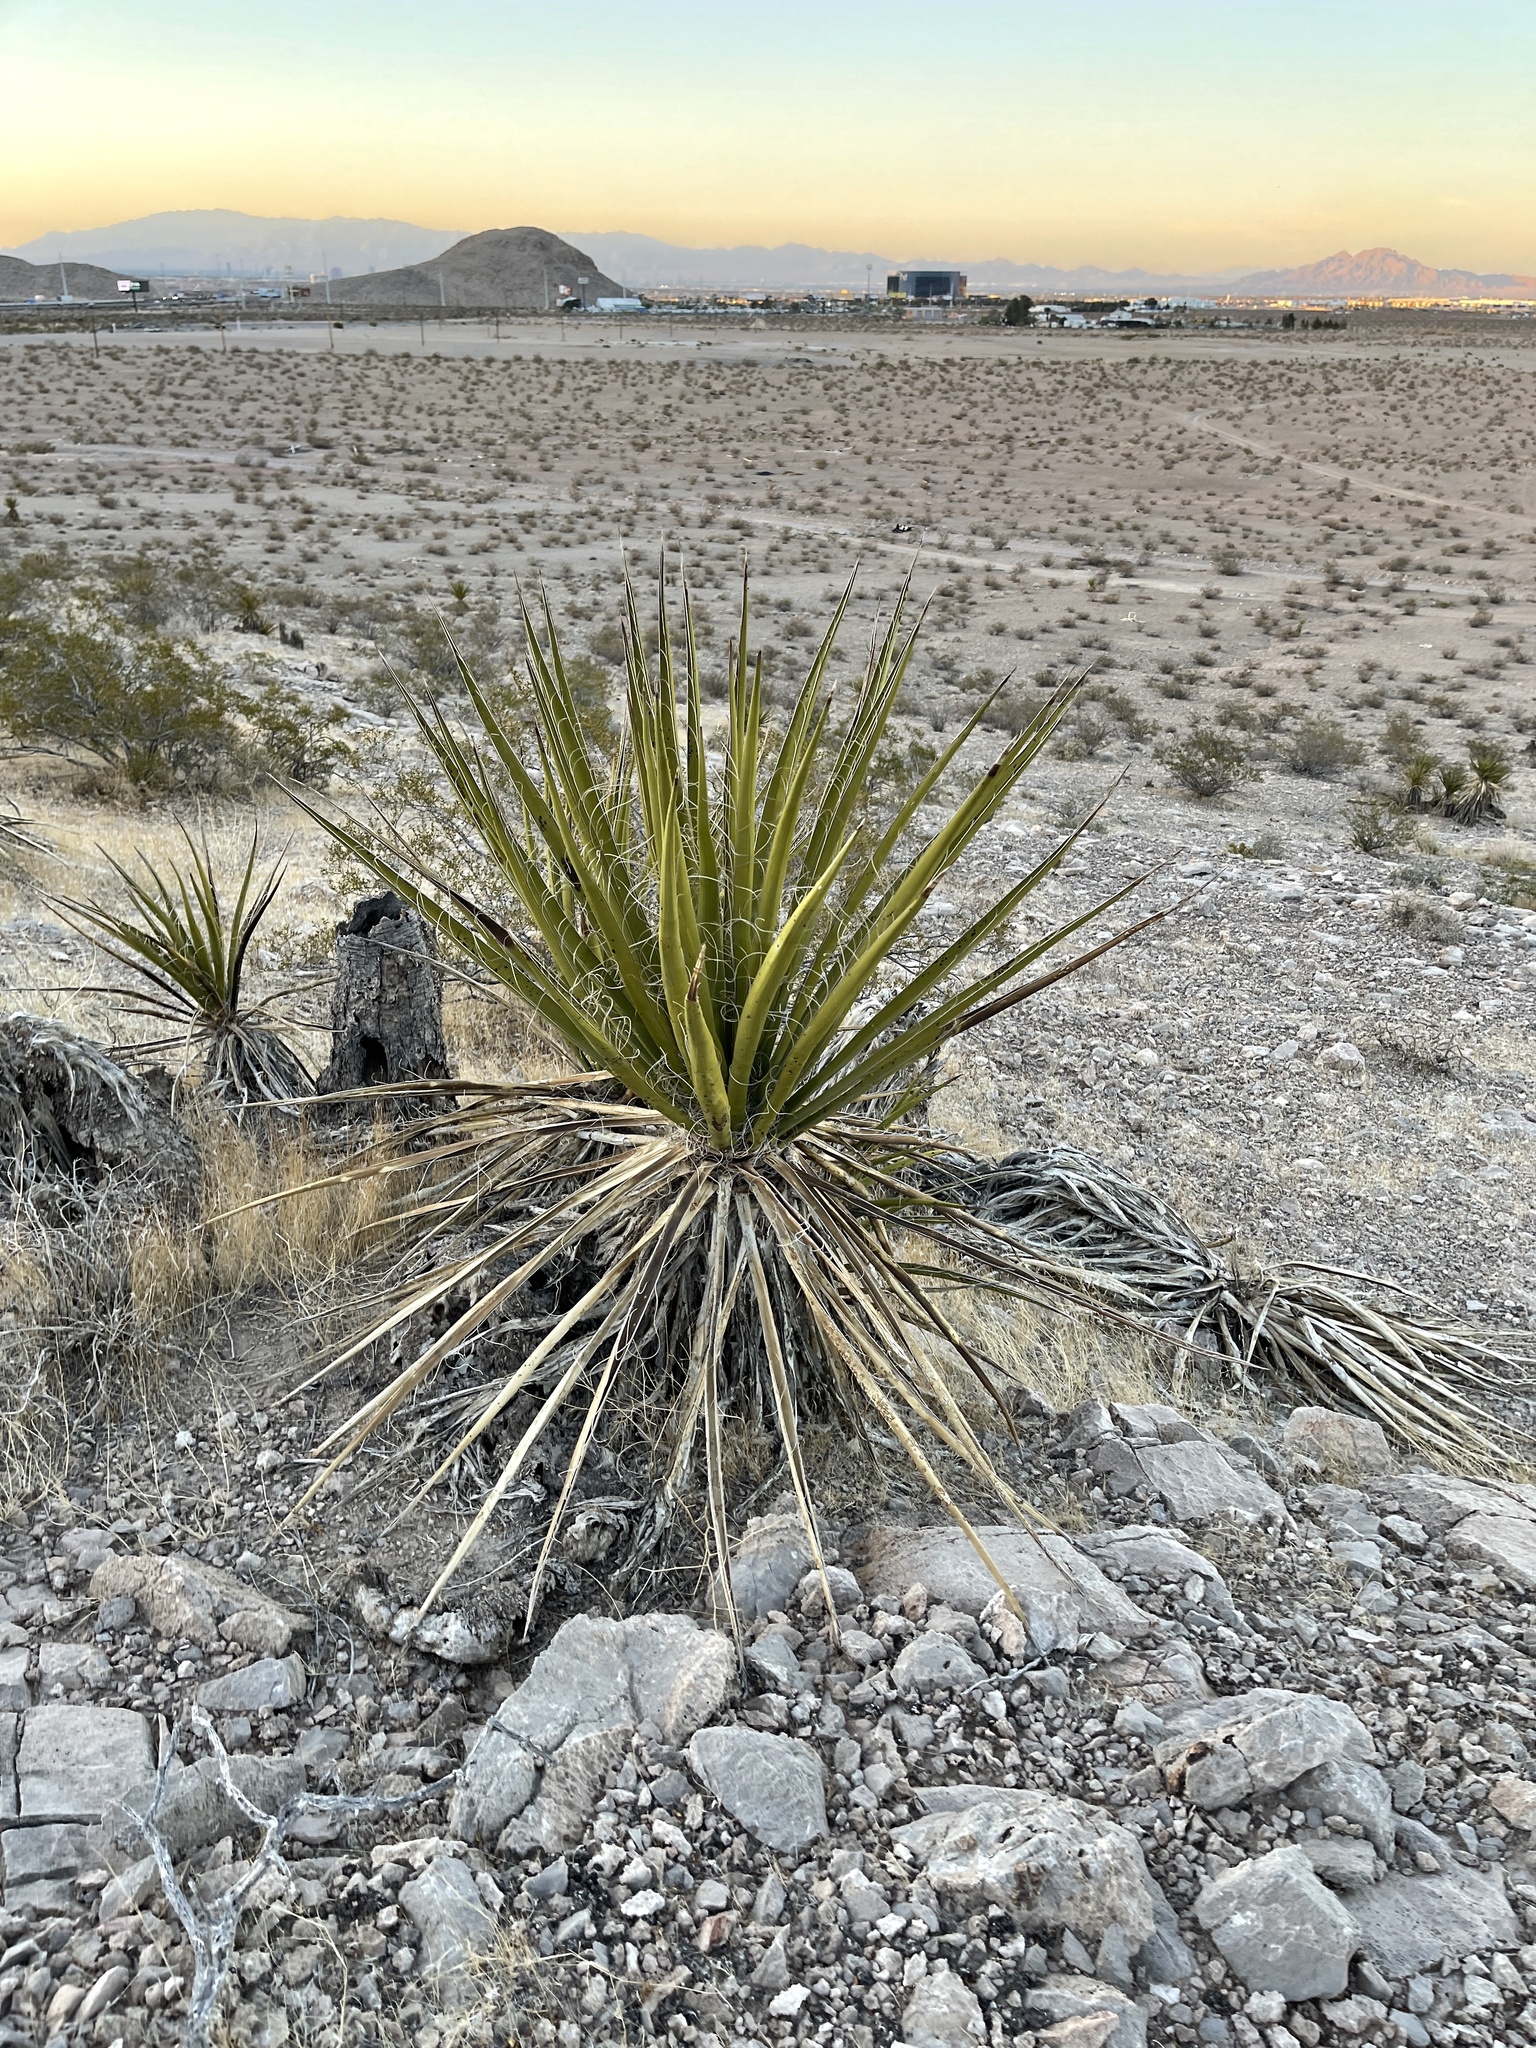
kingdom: Plantae
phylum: Tracheophyta
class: Liliopsida
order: Asparagales
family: Asparagaceae
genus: Yucca
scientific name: Yucca schidigera
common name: Mojave yucca
